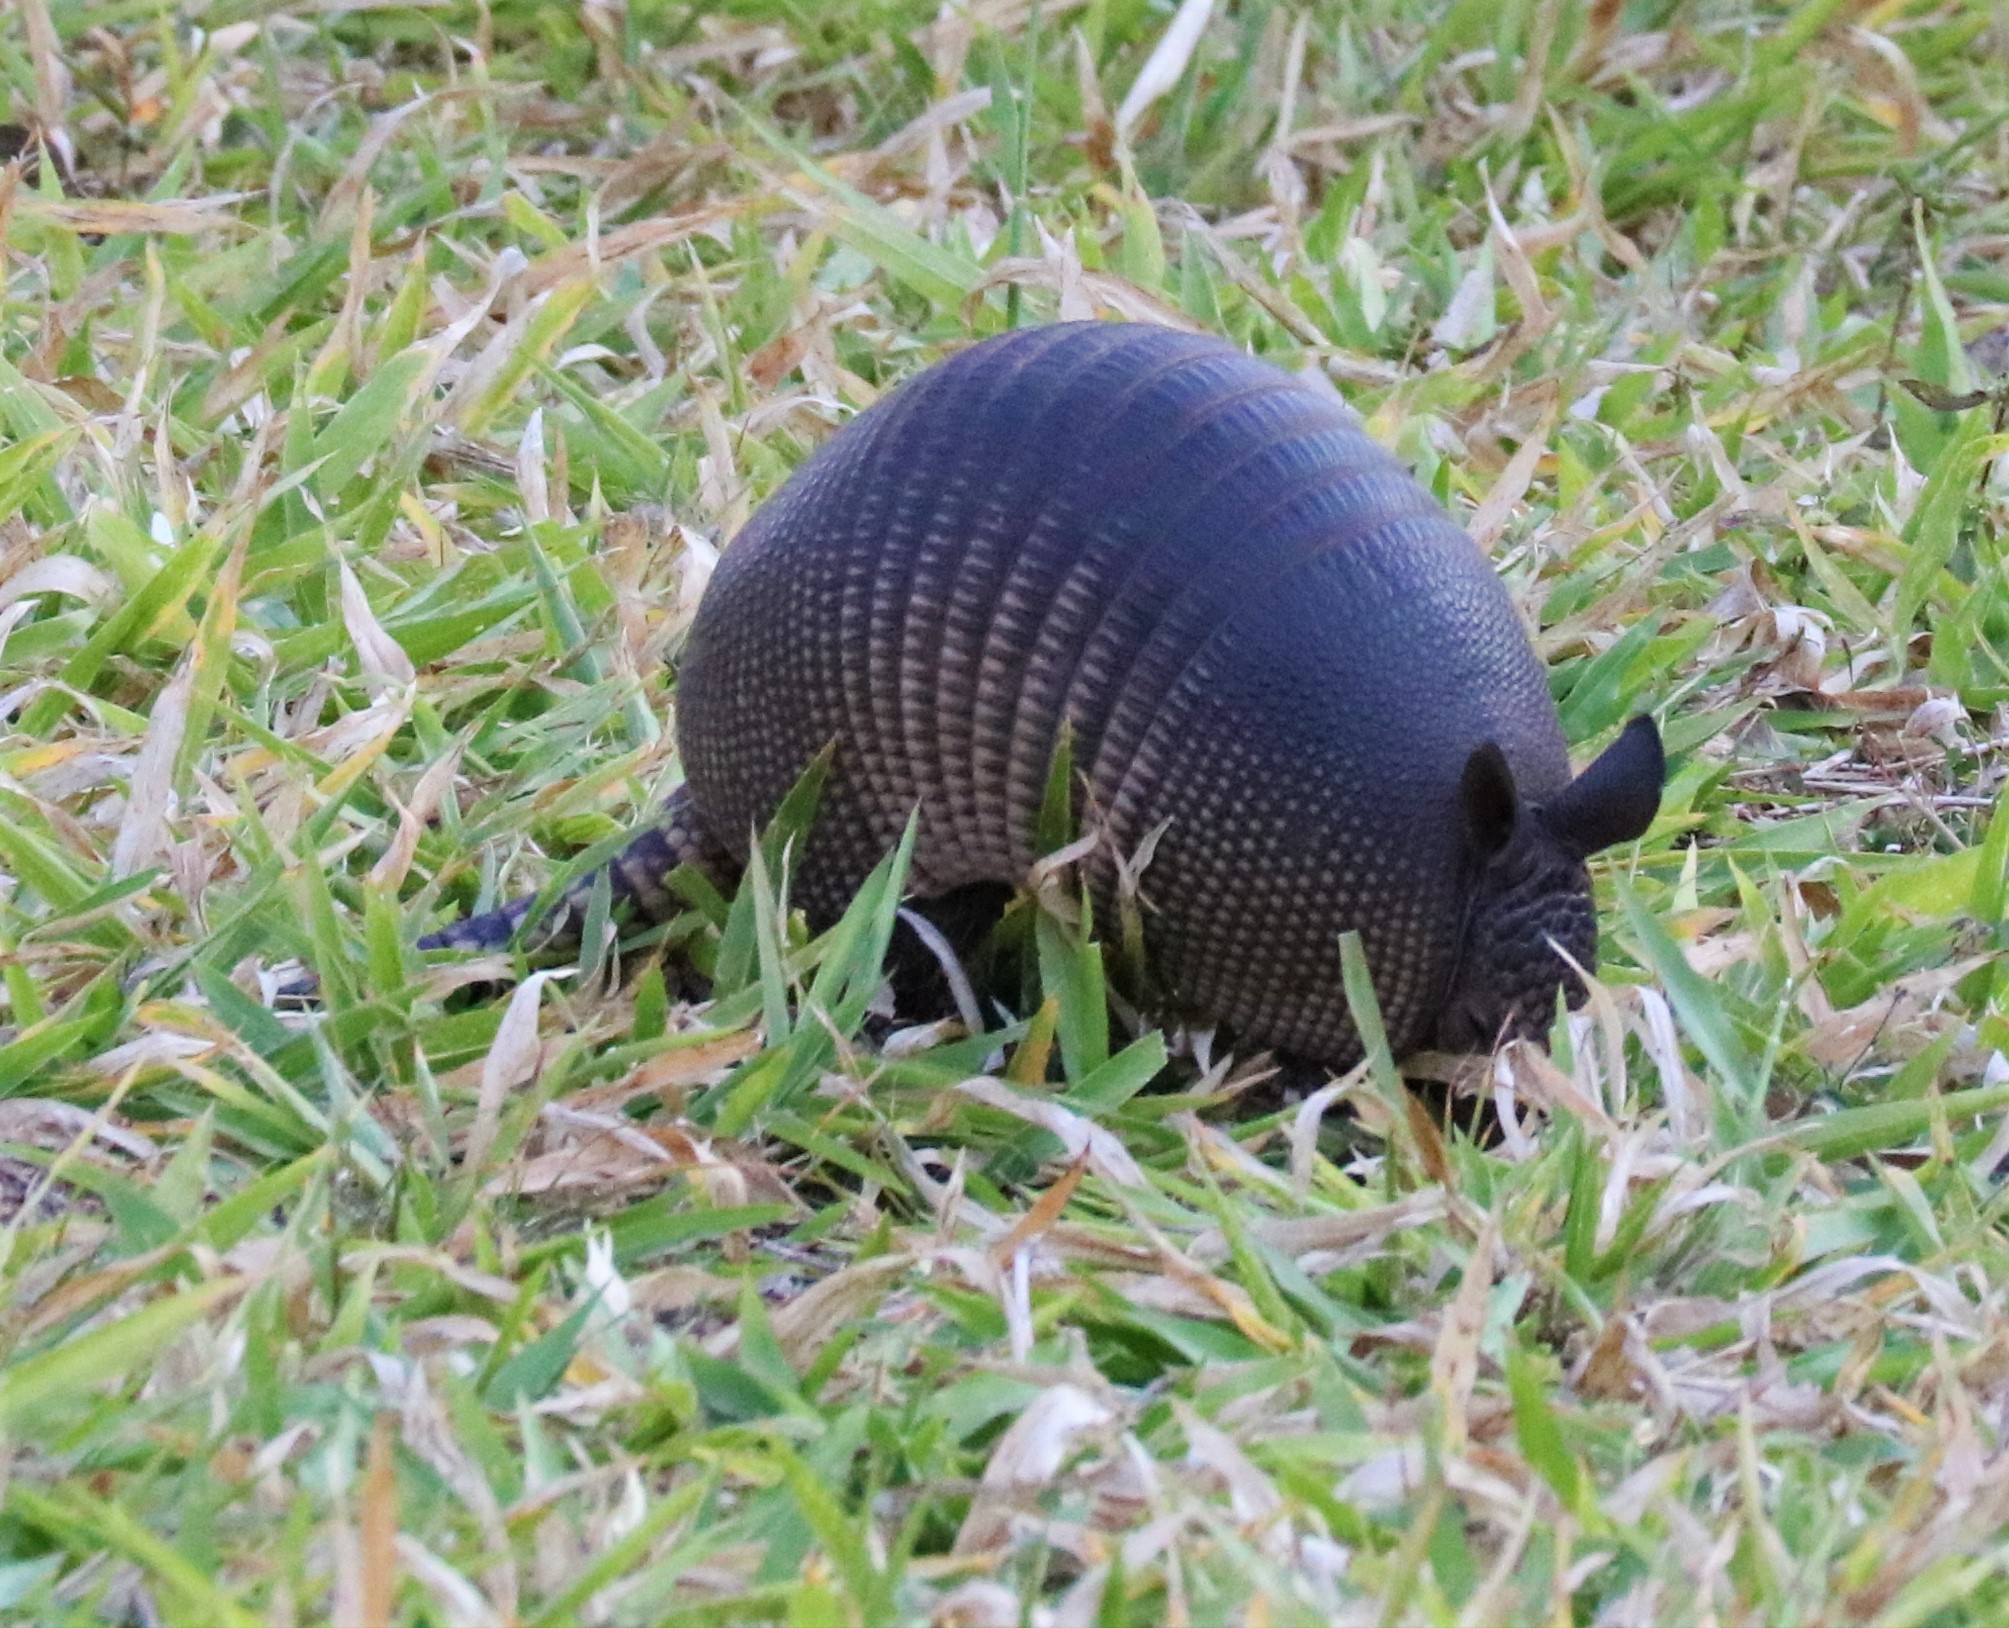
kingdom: Animalia
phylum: Chordata
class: Mammalia
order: Cingulata
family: Dasypodidae
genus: Dasypus
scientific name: Dasypus novemcinctus
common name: Nine-banded armadillo
